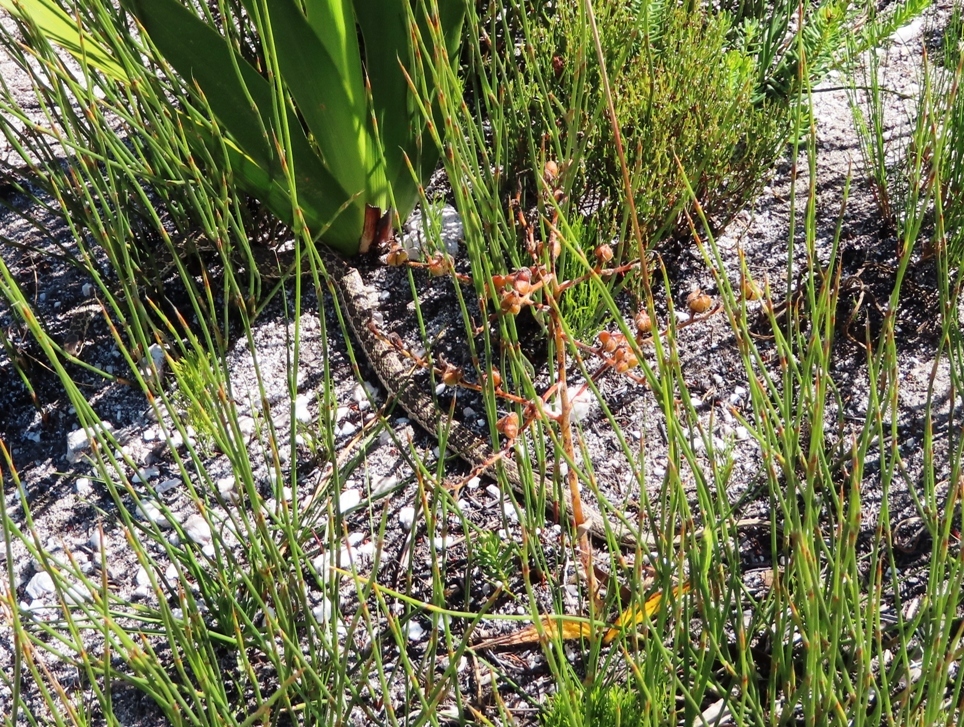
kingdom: Animalia
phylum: Chordata
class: Squamata
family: Psammophiidae
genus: Psammophylax
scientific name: Psammophylax rhombeatus
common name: Rhombic skaapsteker
